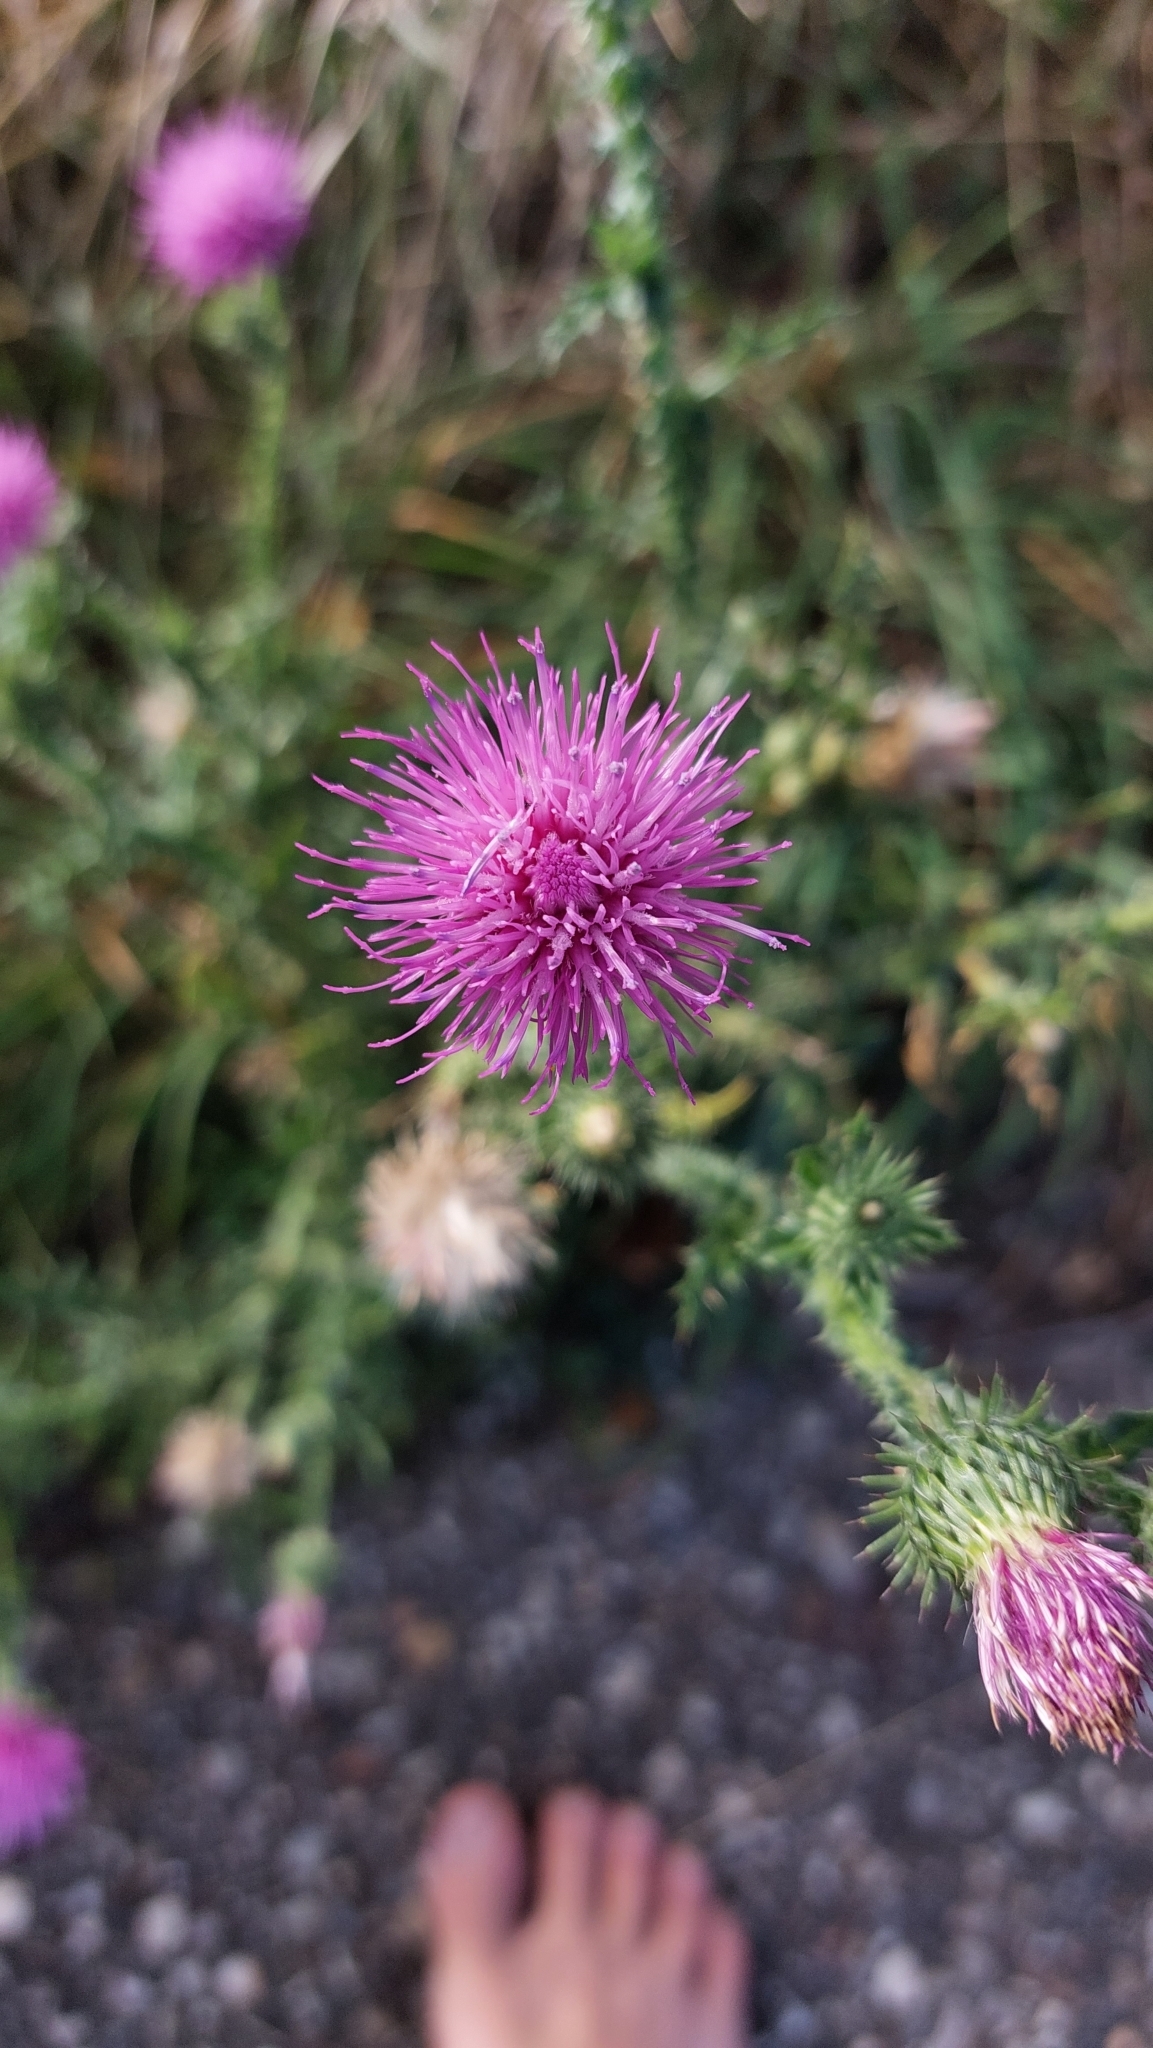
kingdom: Plantae
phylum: Tracheophyta
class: Magnoliopsida
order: Asterales
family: Asteraceae
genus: Carduus
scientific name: Carduus acanthoides
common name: Plumeless thistle
